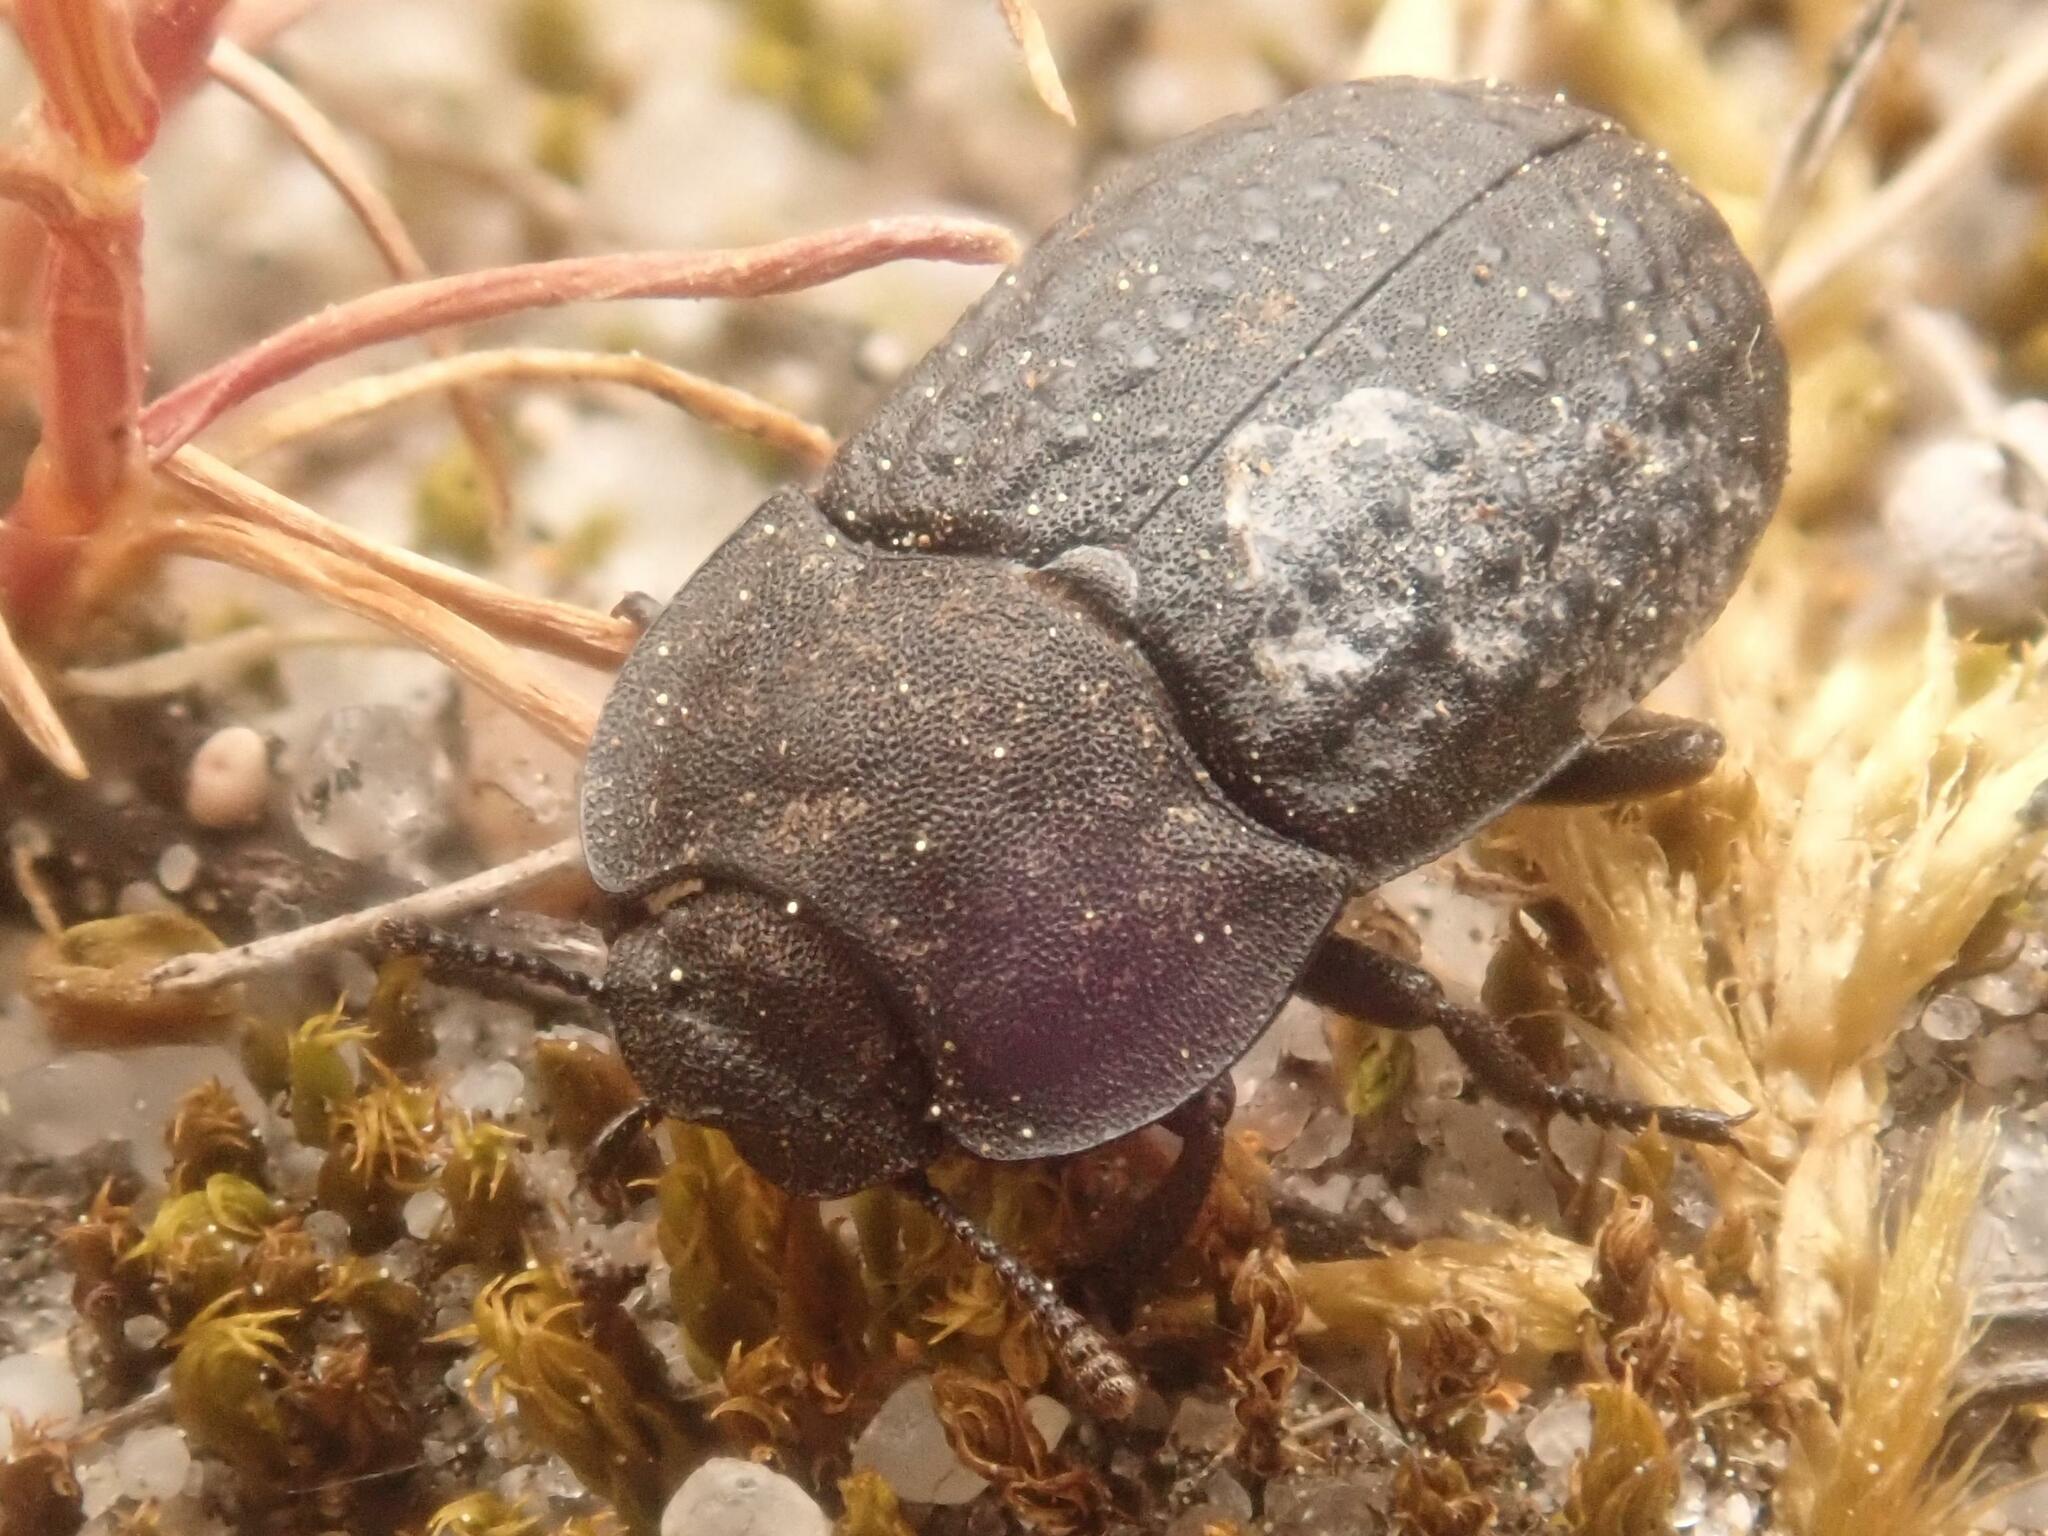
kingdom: Animalia
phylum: Arthropoda
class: Insecta
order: Coleoptera
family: Tenebrionidae
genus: Opatrum
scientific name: Opatrum sabulosum
